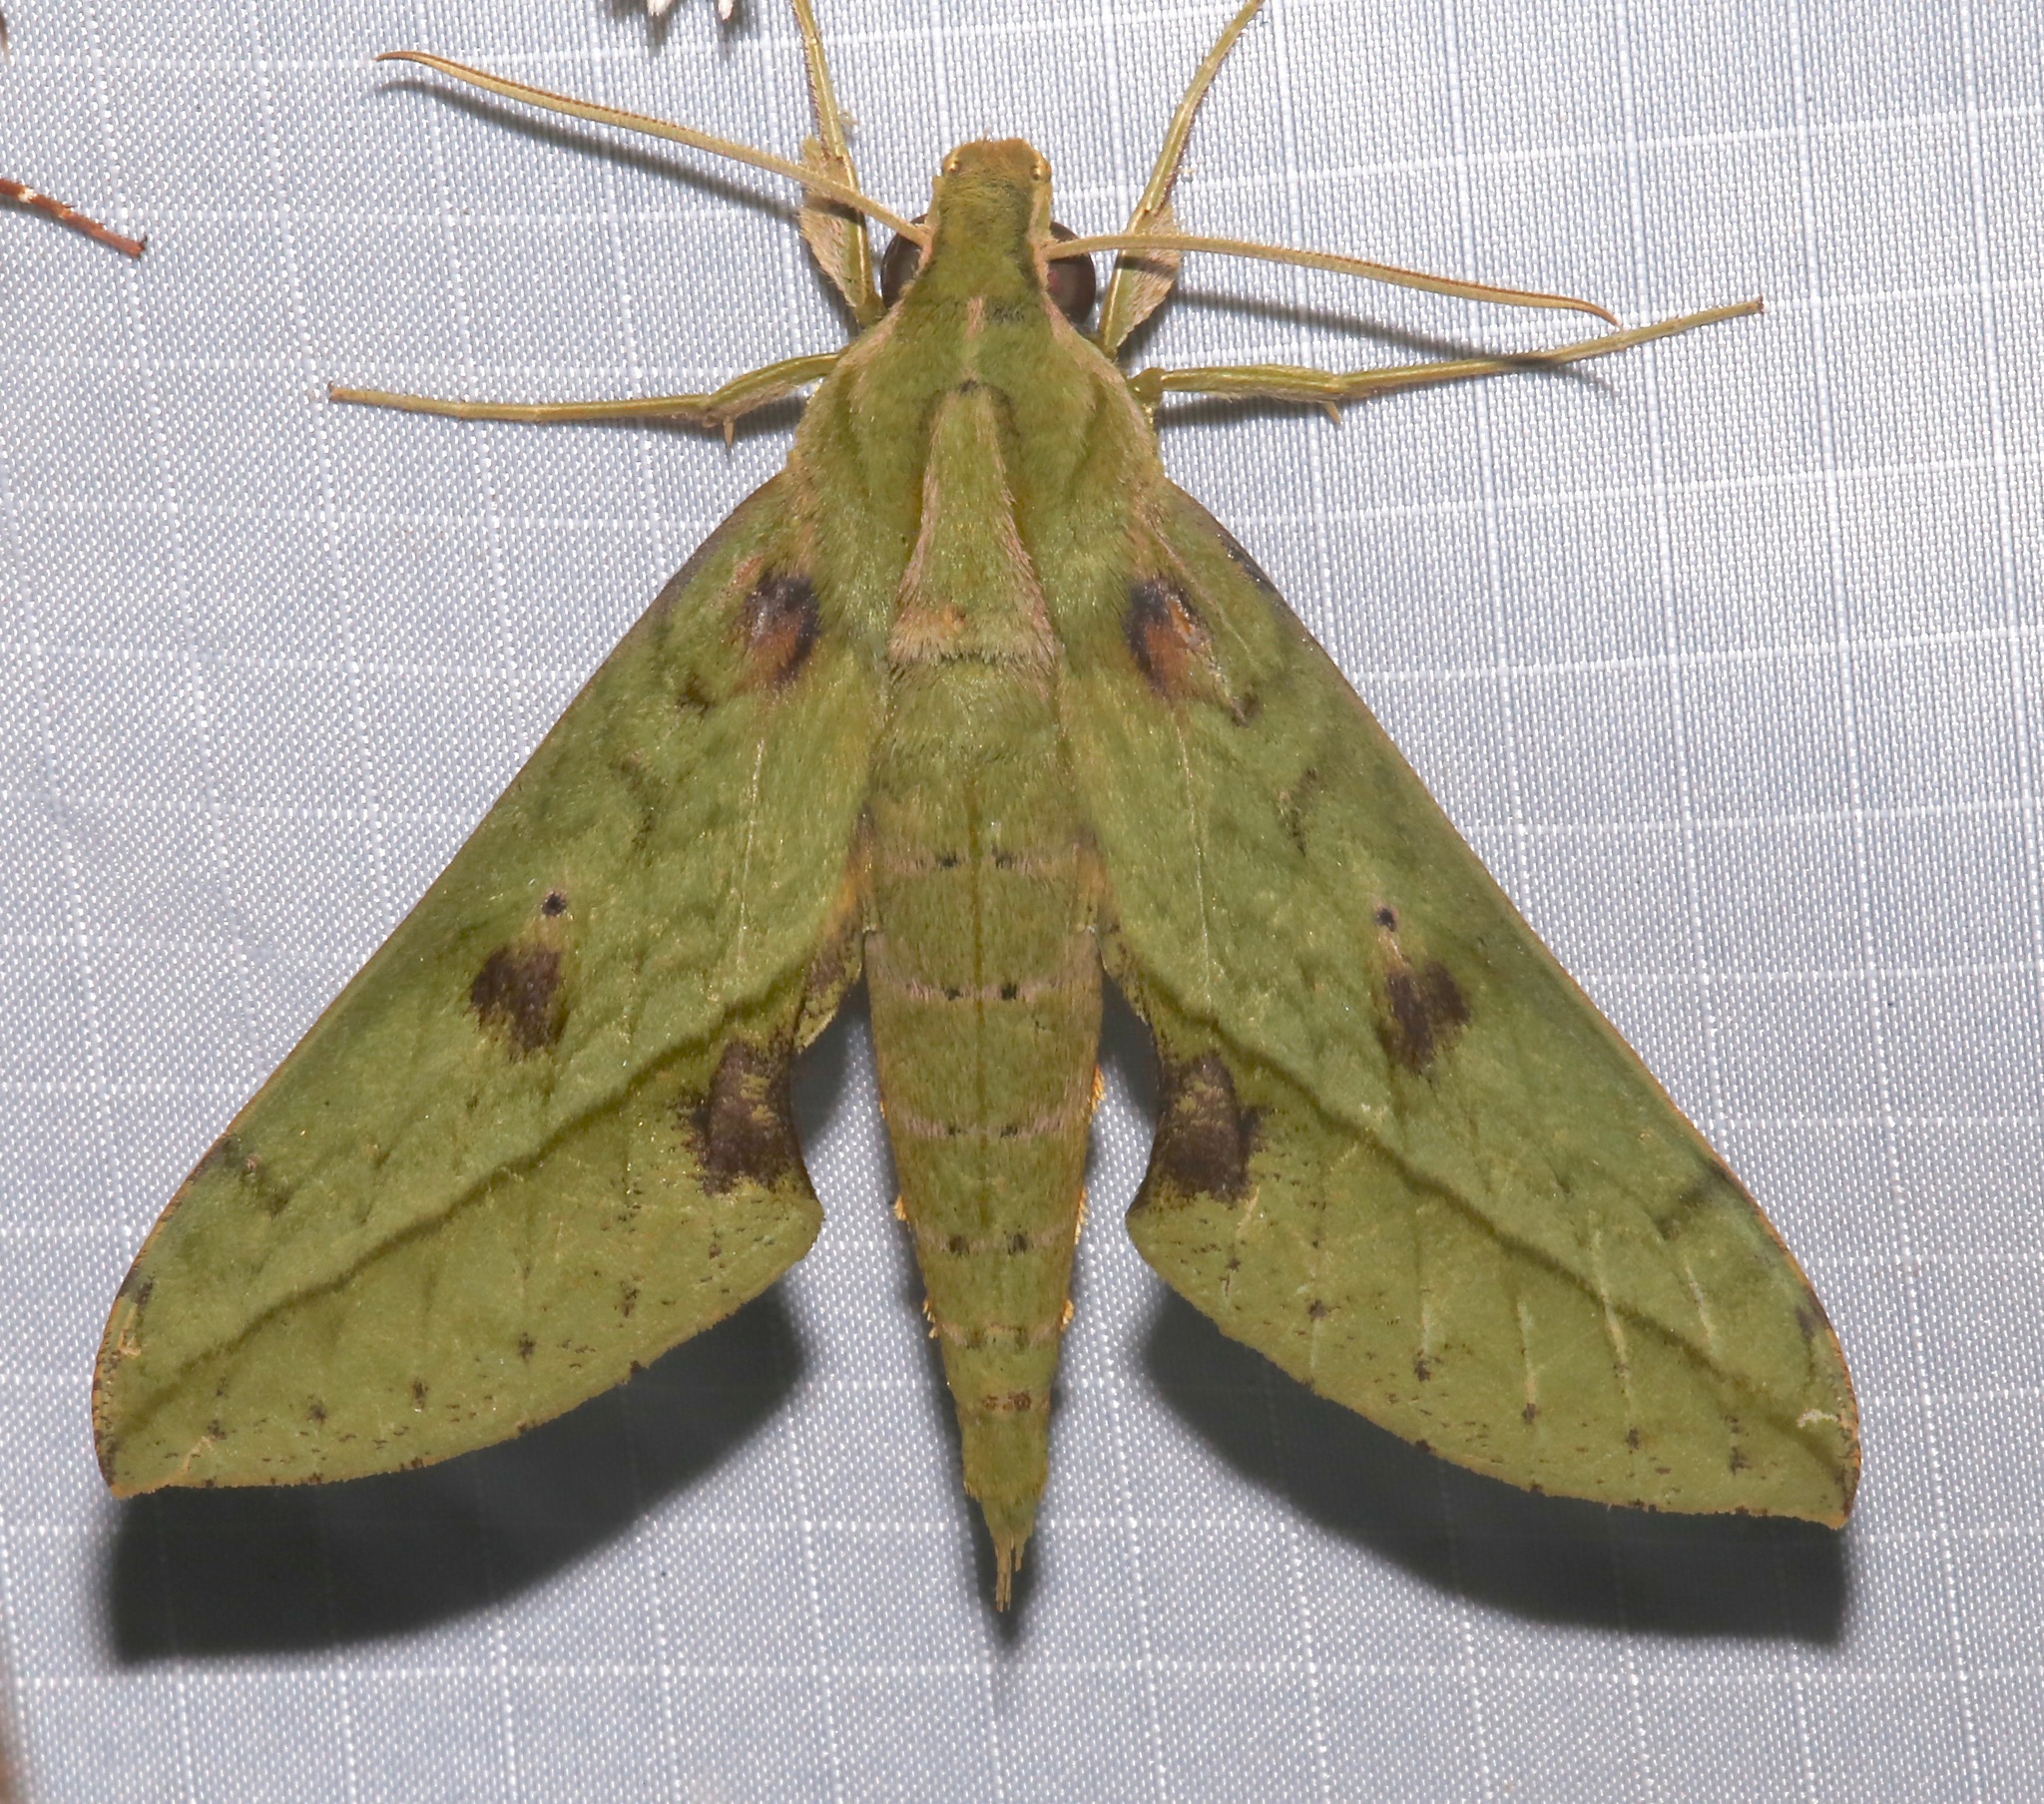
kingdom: Animalia
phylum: Arthropoda
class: Insecta
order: Lepidoptera
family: Sphingidae
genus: Xylophanes
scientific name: Xylophanes macasensis
